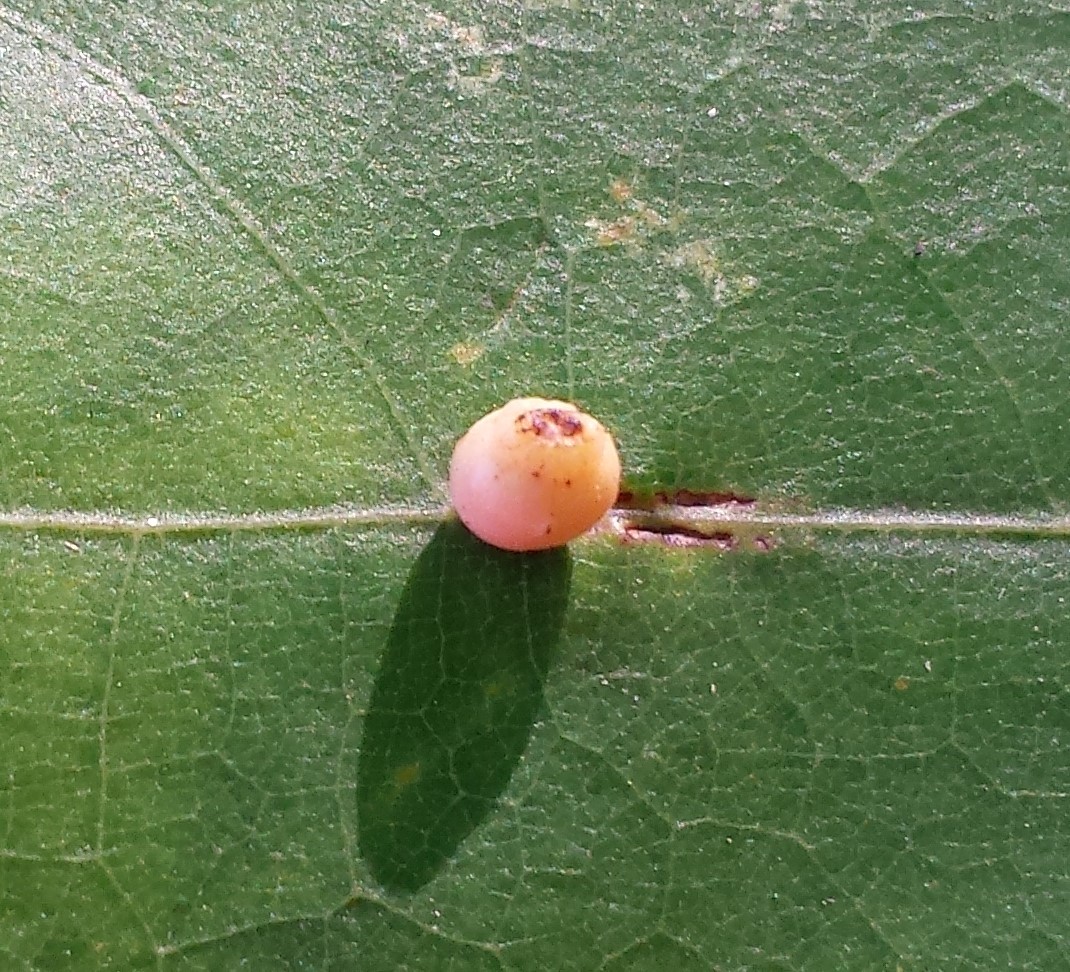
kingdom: Animalia
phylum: Arthropoda
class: Insecta
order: Hymenoptera
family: Cynipidae
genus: Kokkocynips
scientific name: Kokkocynips rileyi
